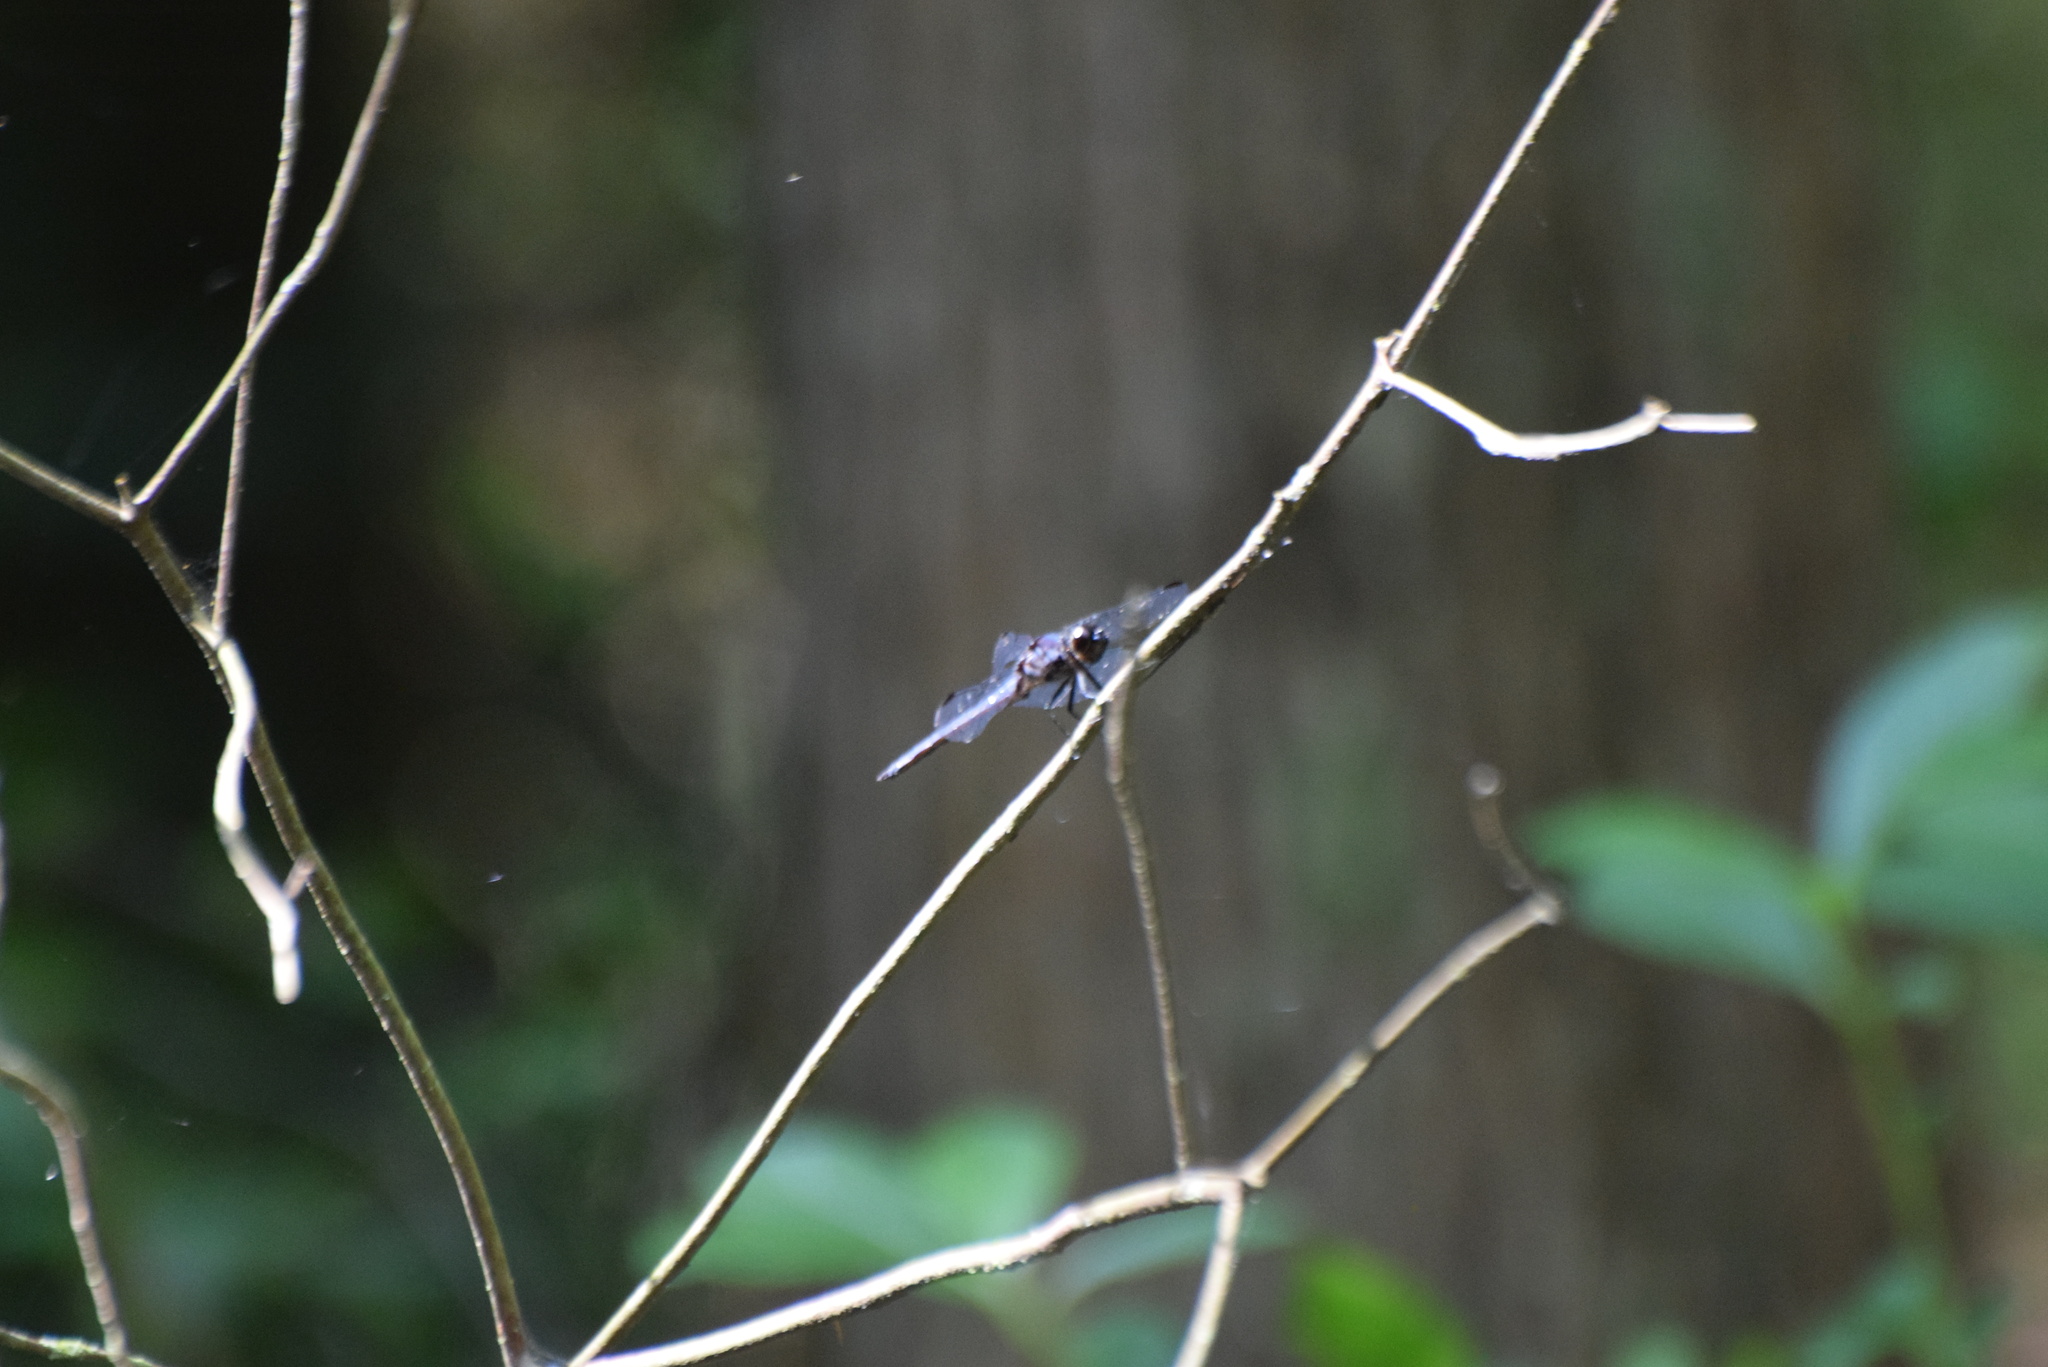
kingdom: Animalia
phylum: Arthropoda
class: Insecta
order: Odonata
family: Libellulidae
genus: Libellula
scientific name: Libellula incesta
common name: Slaty skimmer
